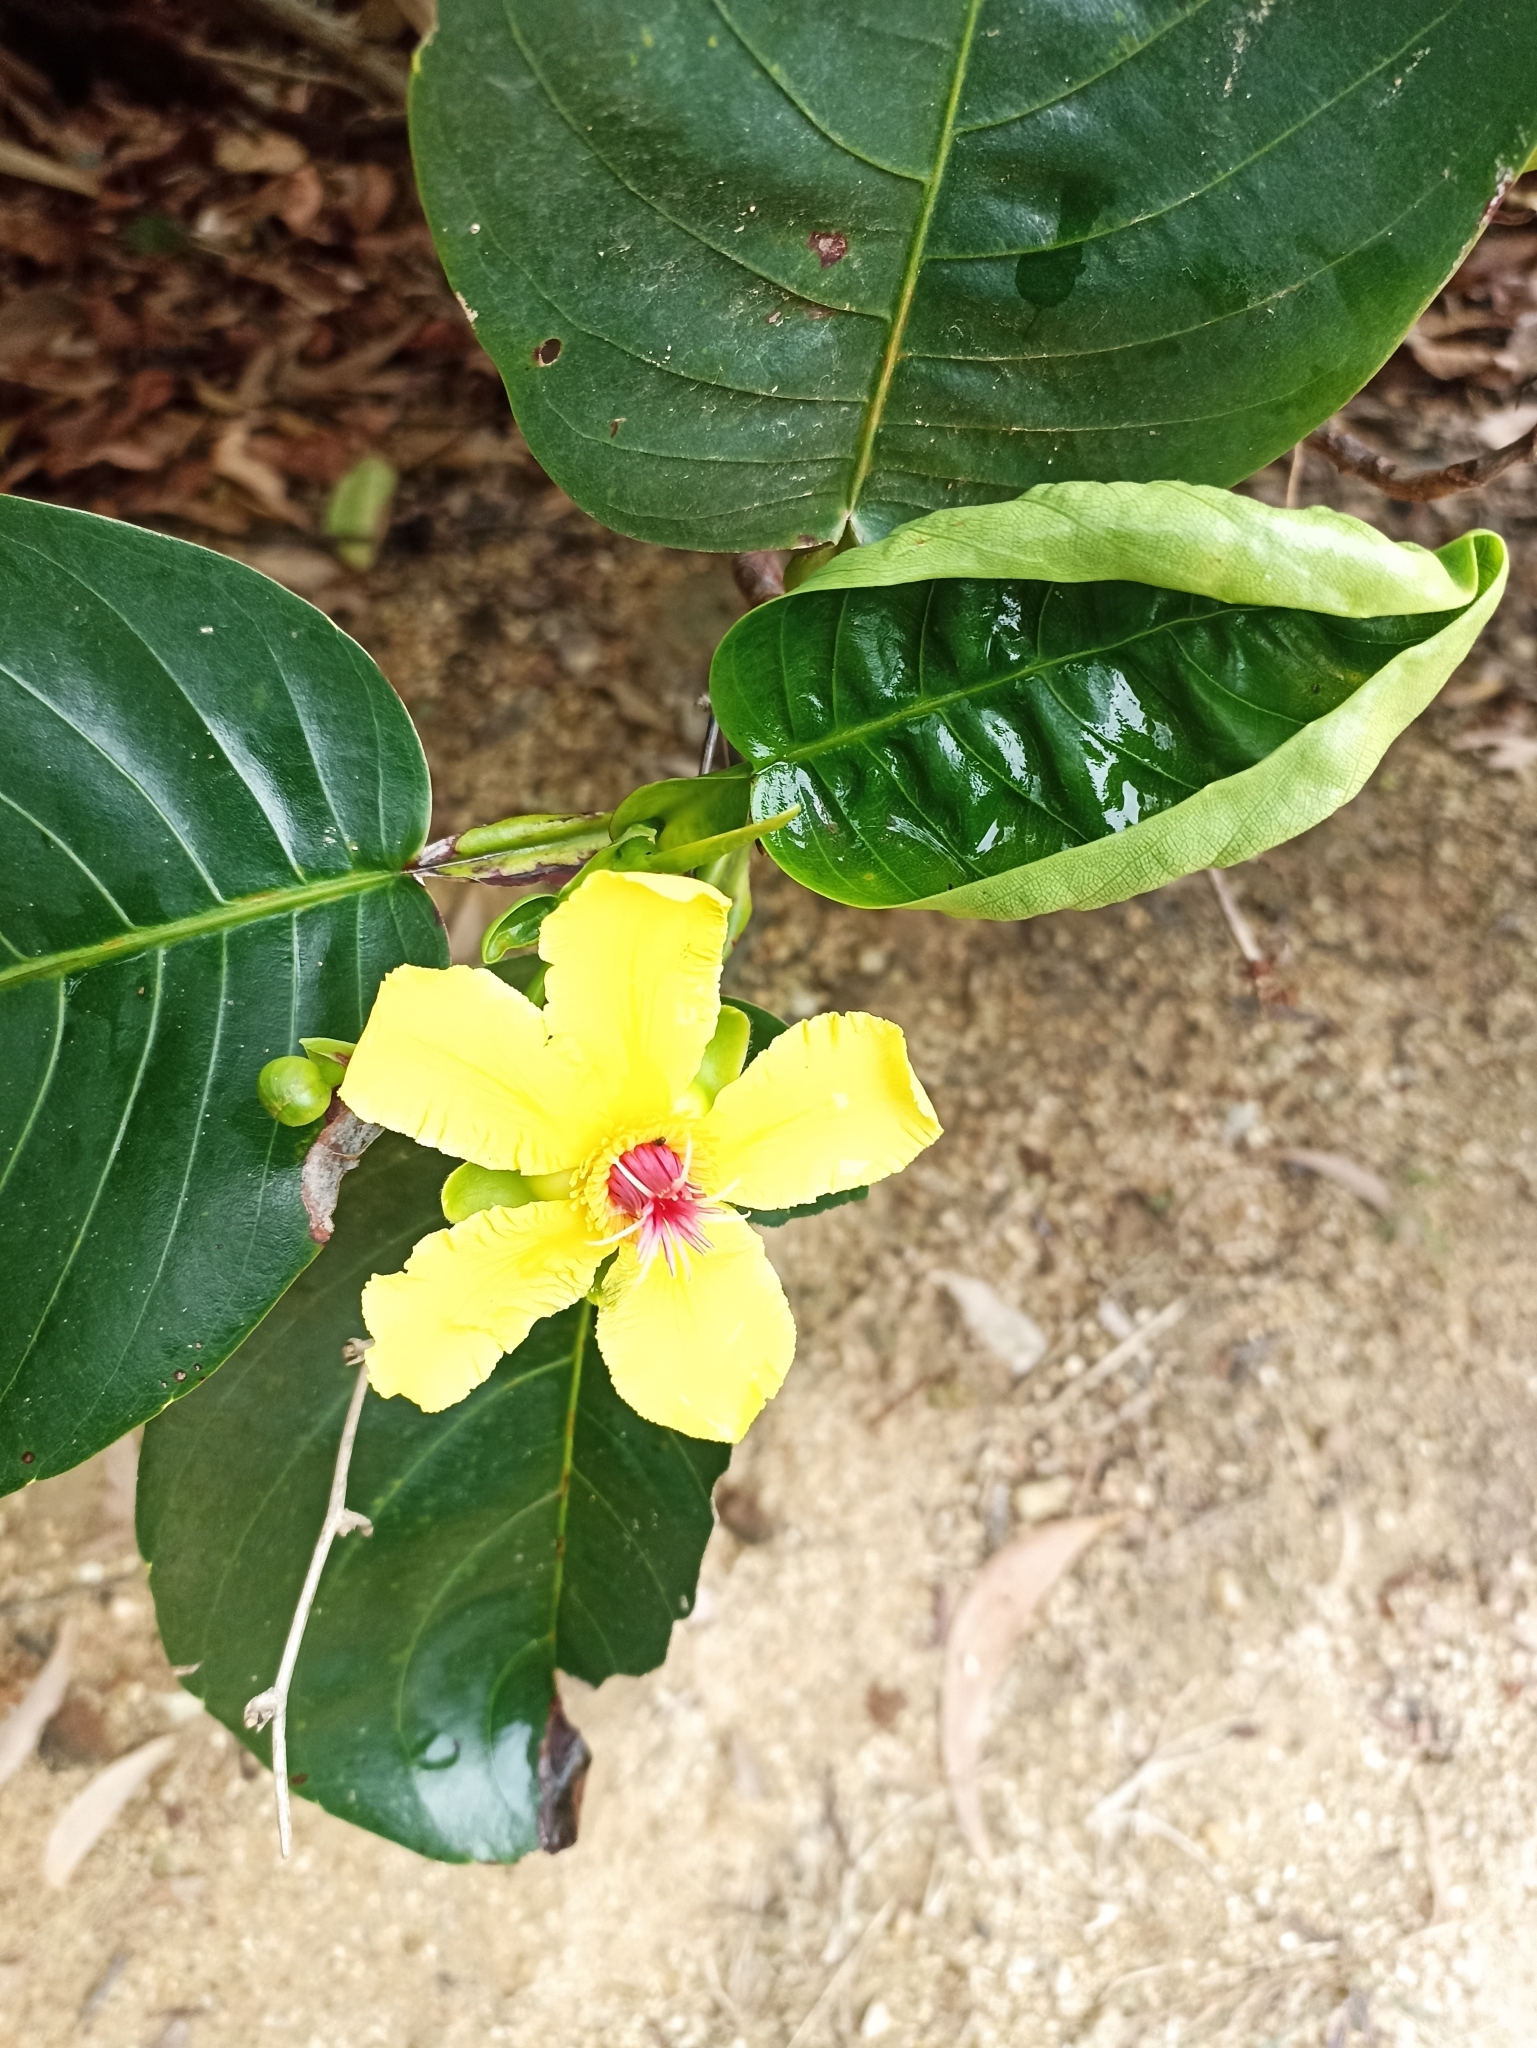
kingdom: Plantae
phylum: Tracheophyta
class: Magnoliopsida
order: Dilleniales
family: Dilleniaceae
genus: Dillenia
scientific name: Dillenia alata
